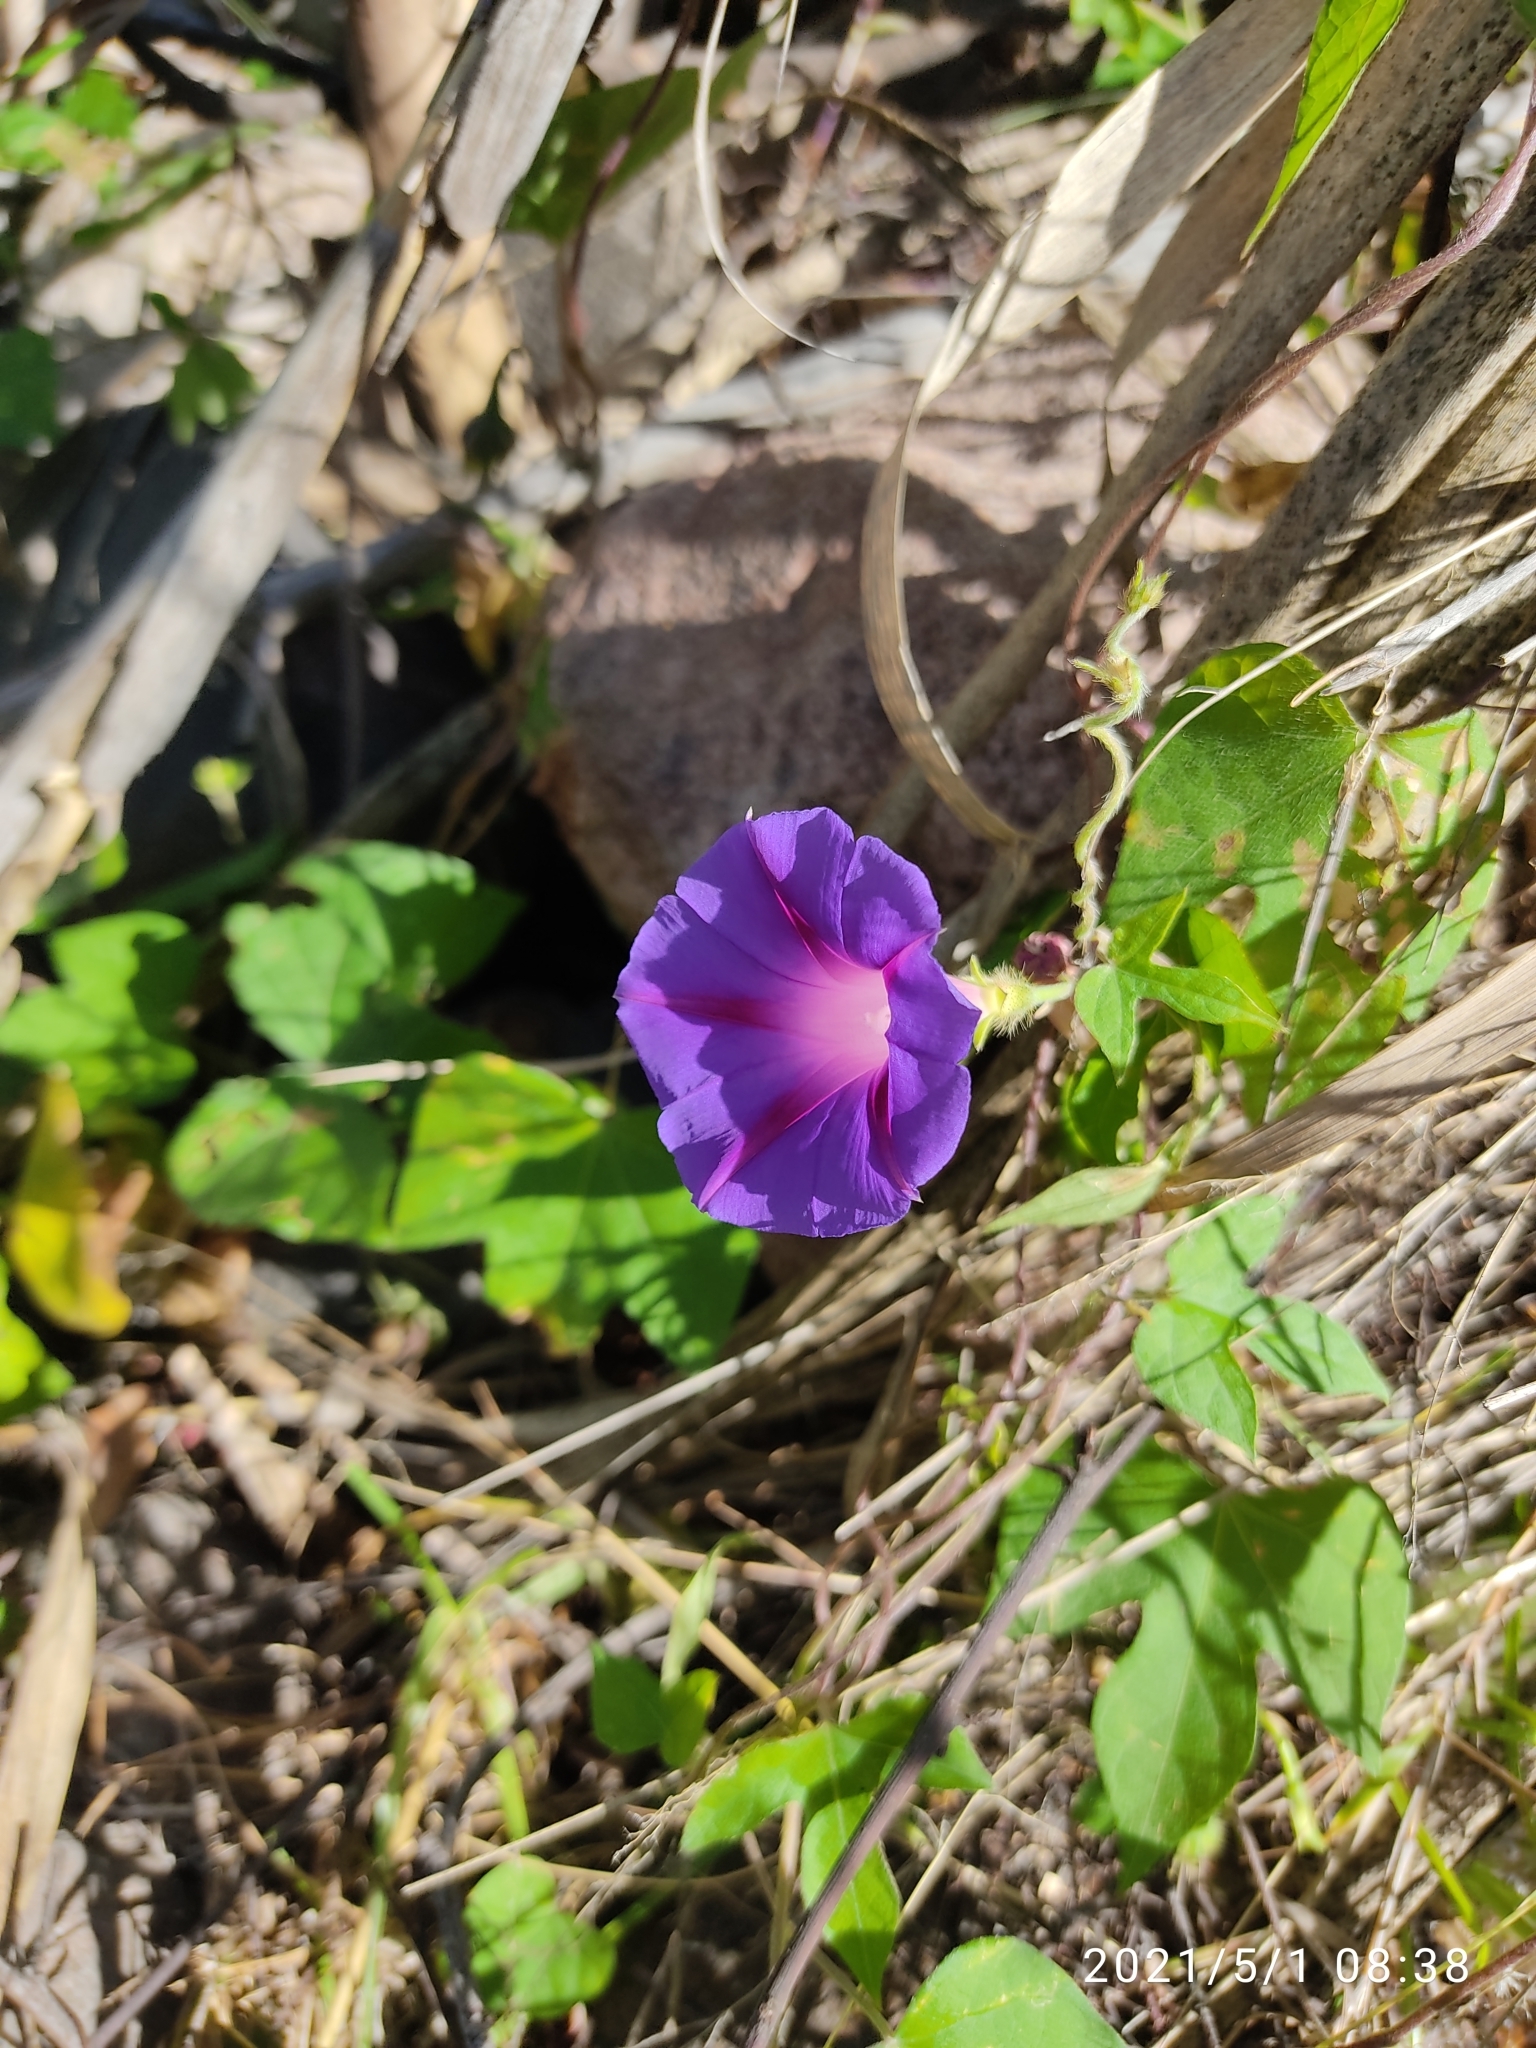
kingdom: Plantae
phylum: Tracheophyta
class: Magnoliopsida
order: Solanales
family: Convolvulaceae
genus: Ipomoea
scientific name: Ipomoea purpurea
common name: Common morning-glory
